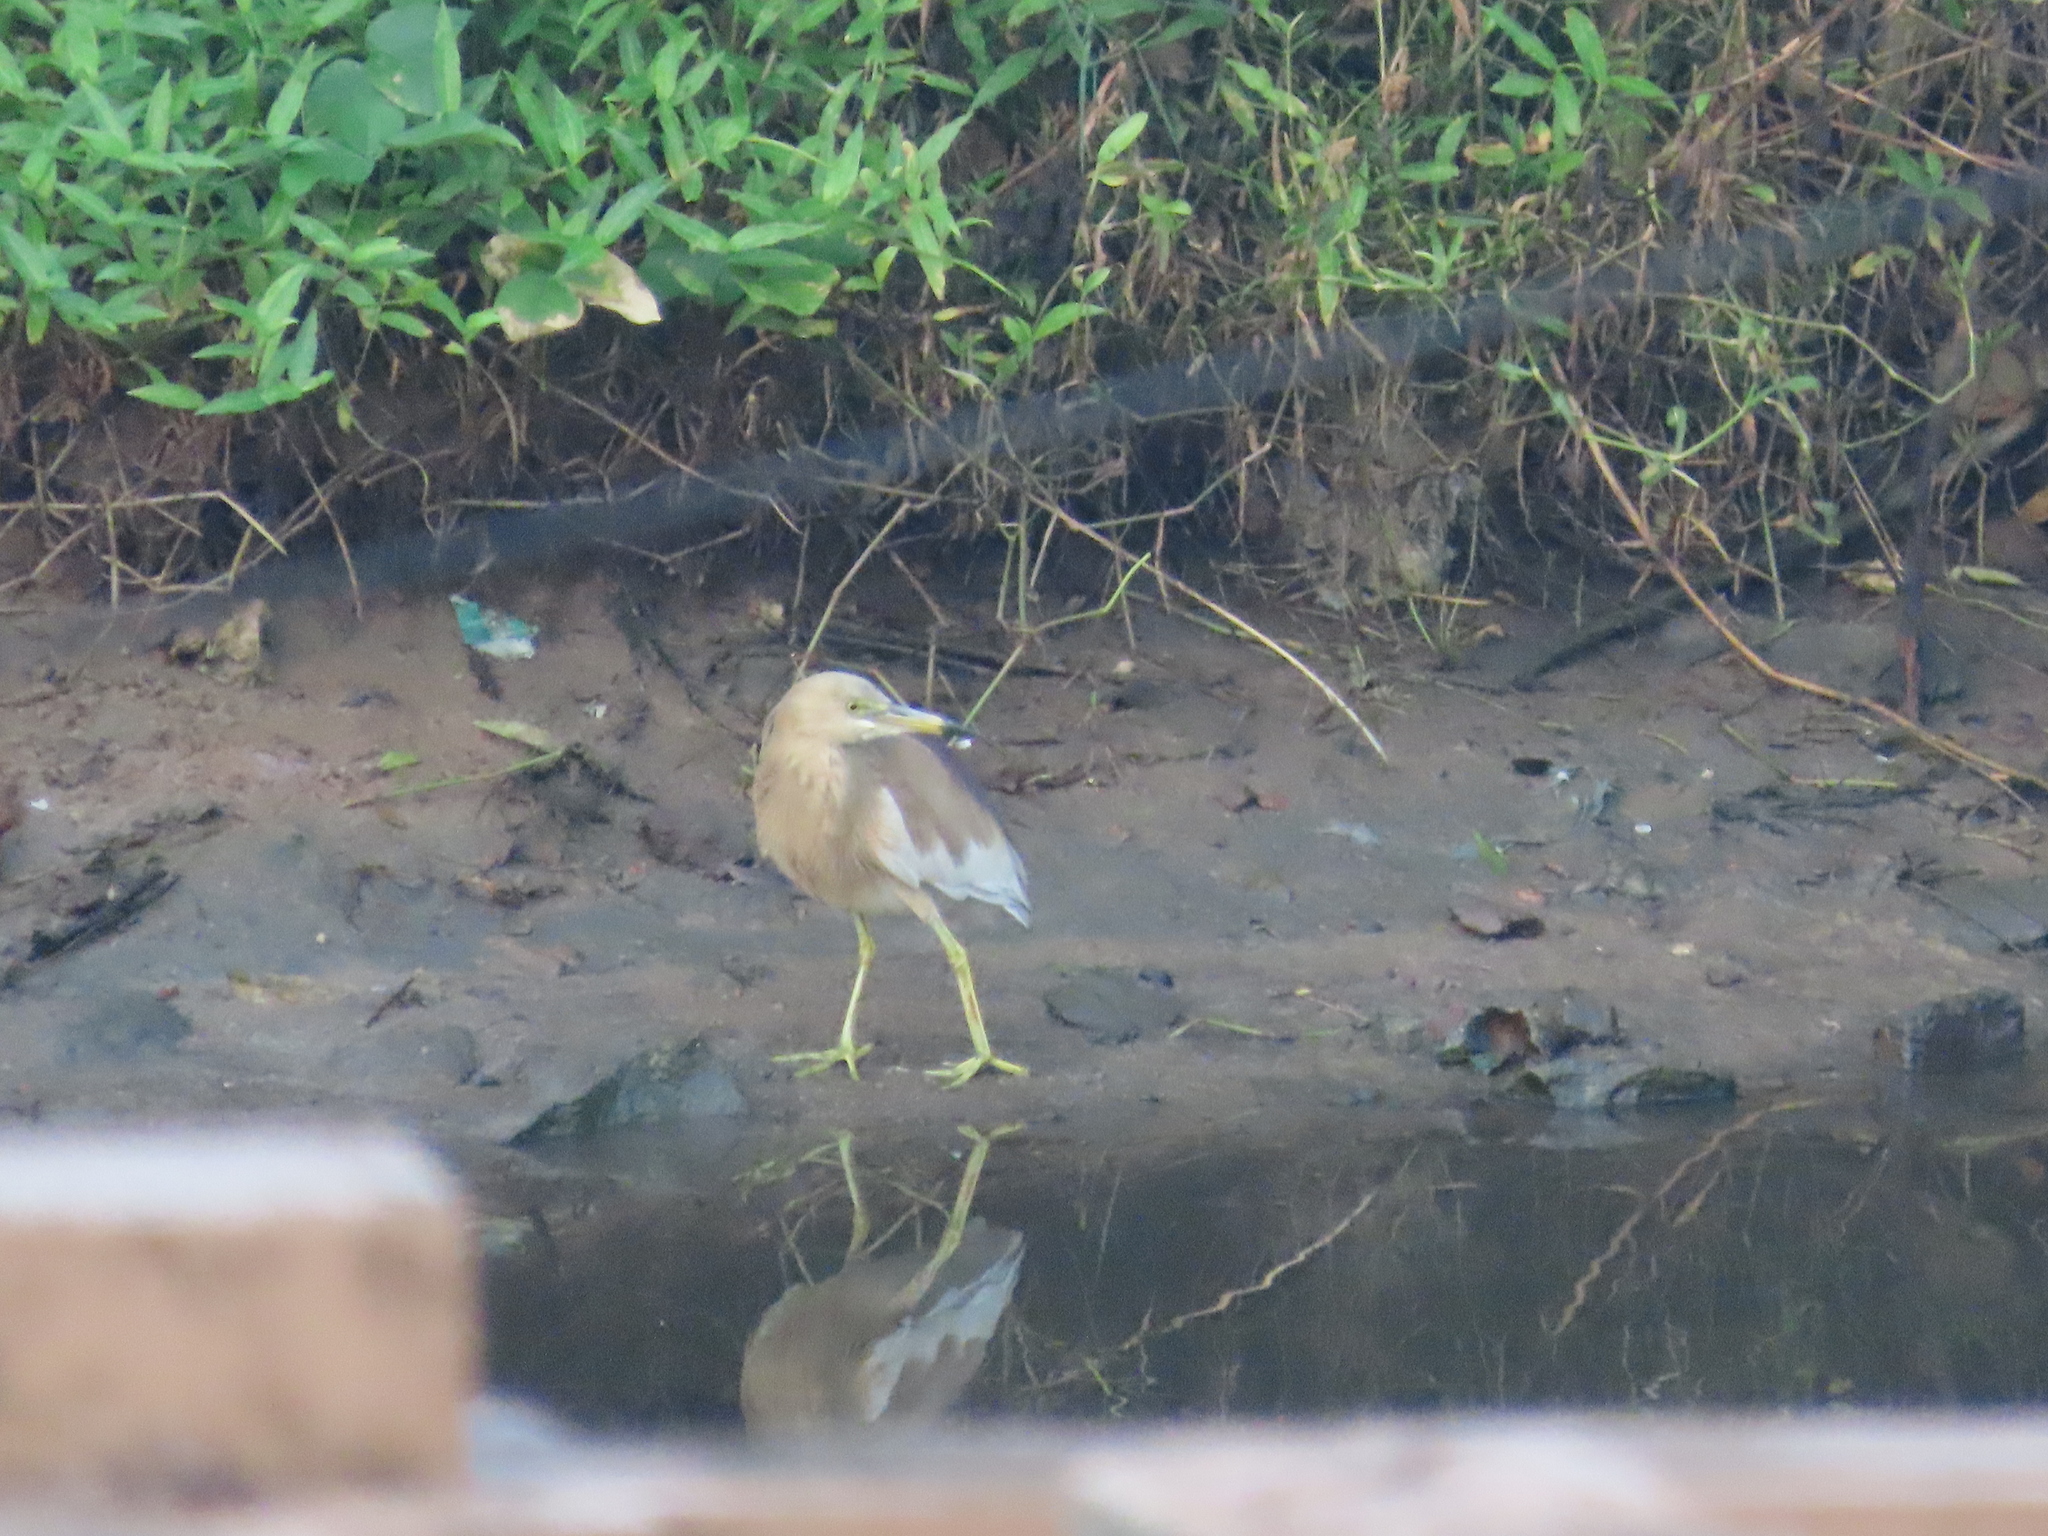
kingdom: Animalia
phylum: Chordata
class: Aves
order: Pelecaniformes
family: Ardeidae
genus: Ardeola
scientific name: Ardeola grayii
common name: Indian pond heron
